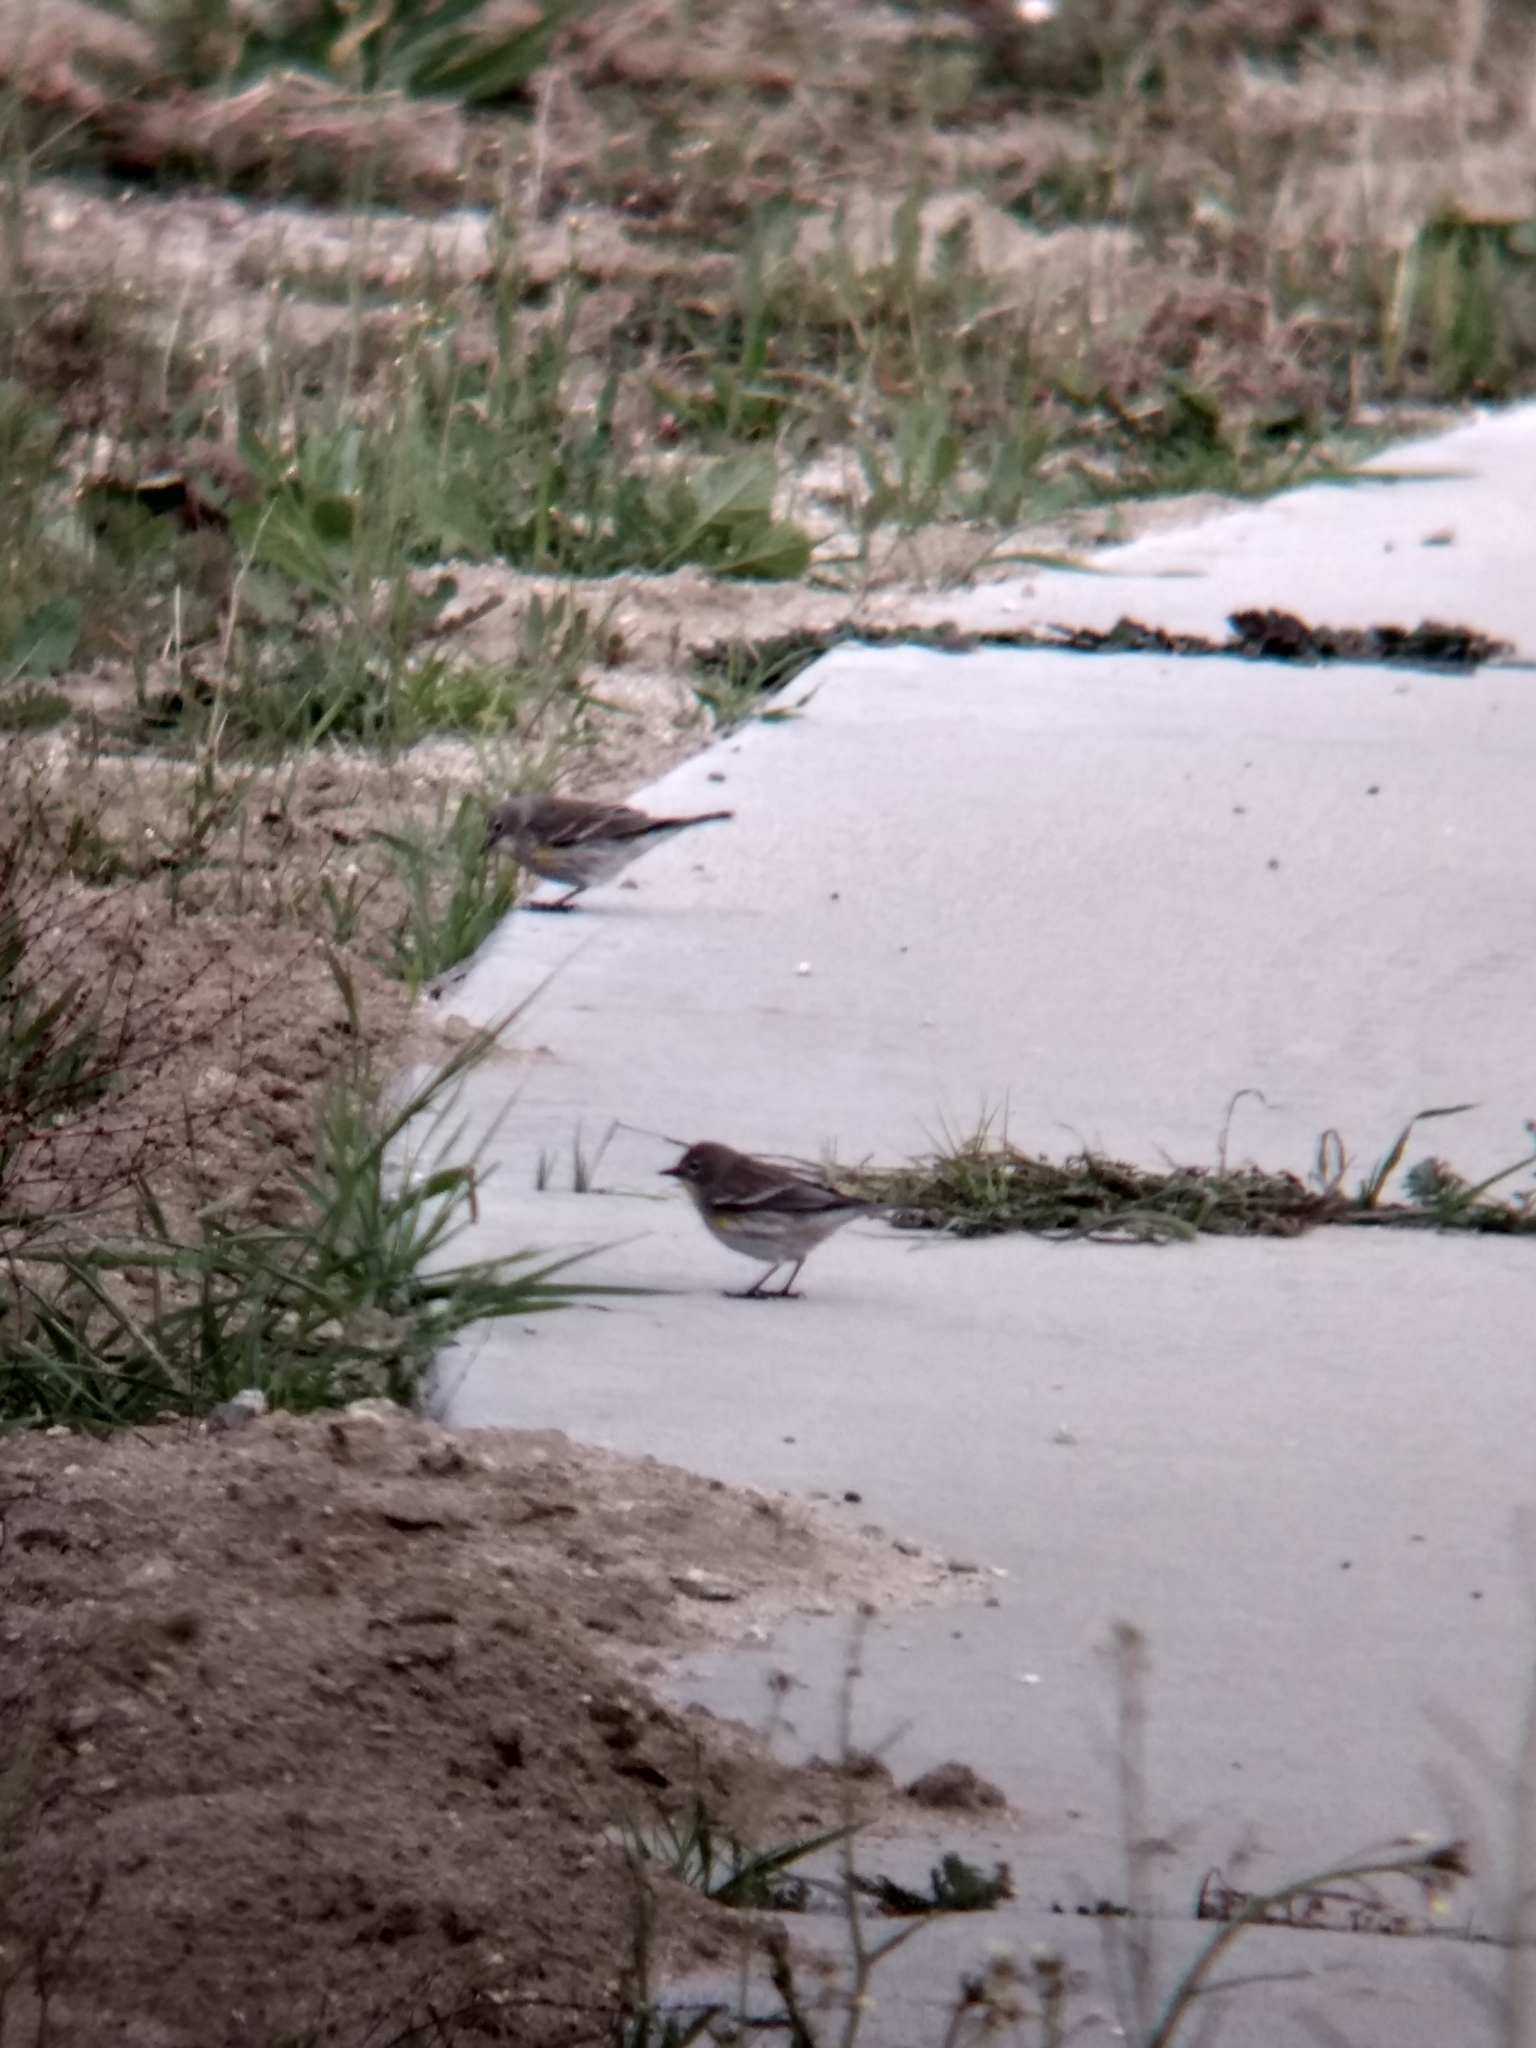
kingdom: Animalia
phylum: Chordata
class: Aves
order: Passeriformes
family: Parulidae
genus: Setophaga
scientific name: Setophaga coronata
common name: Myrtle warbler
